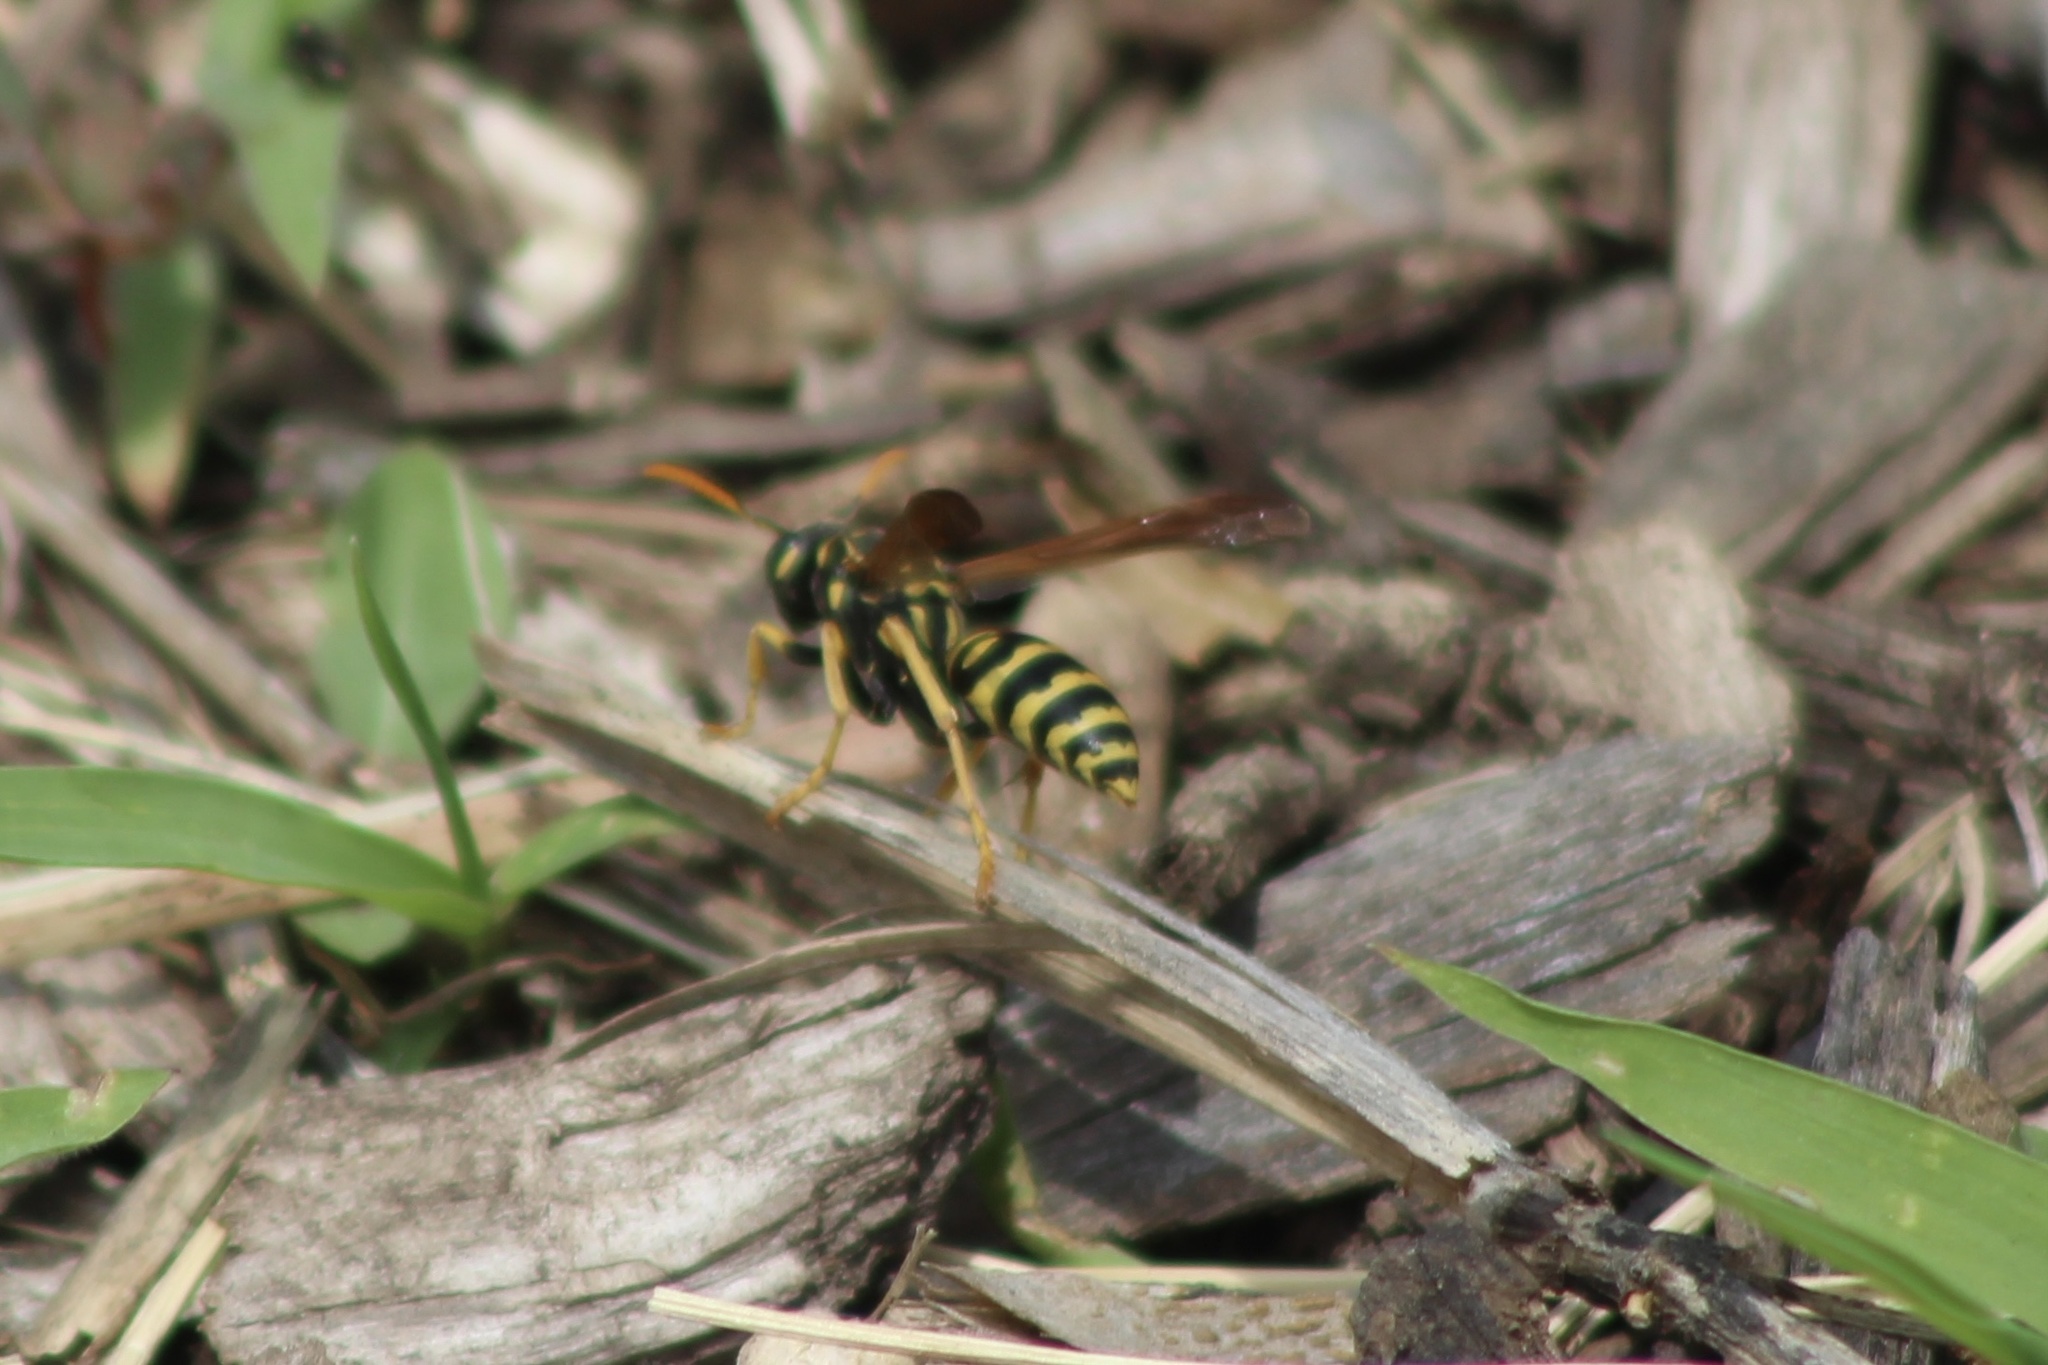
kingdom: Animalia
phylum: Arthropoda
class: Insecta
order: Hymenoptera
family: Eumenidae
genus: Polistes
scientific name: Polistes dominula
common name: Paper wasp
